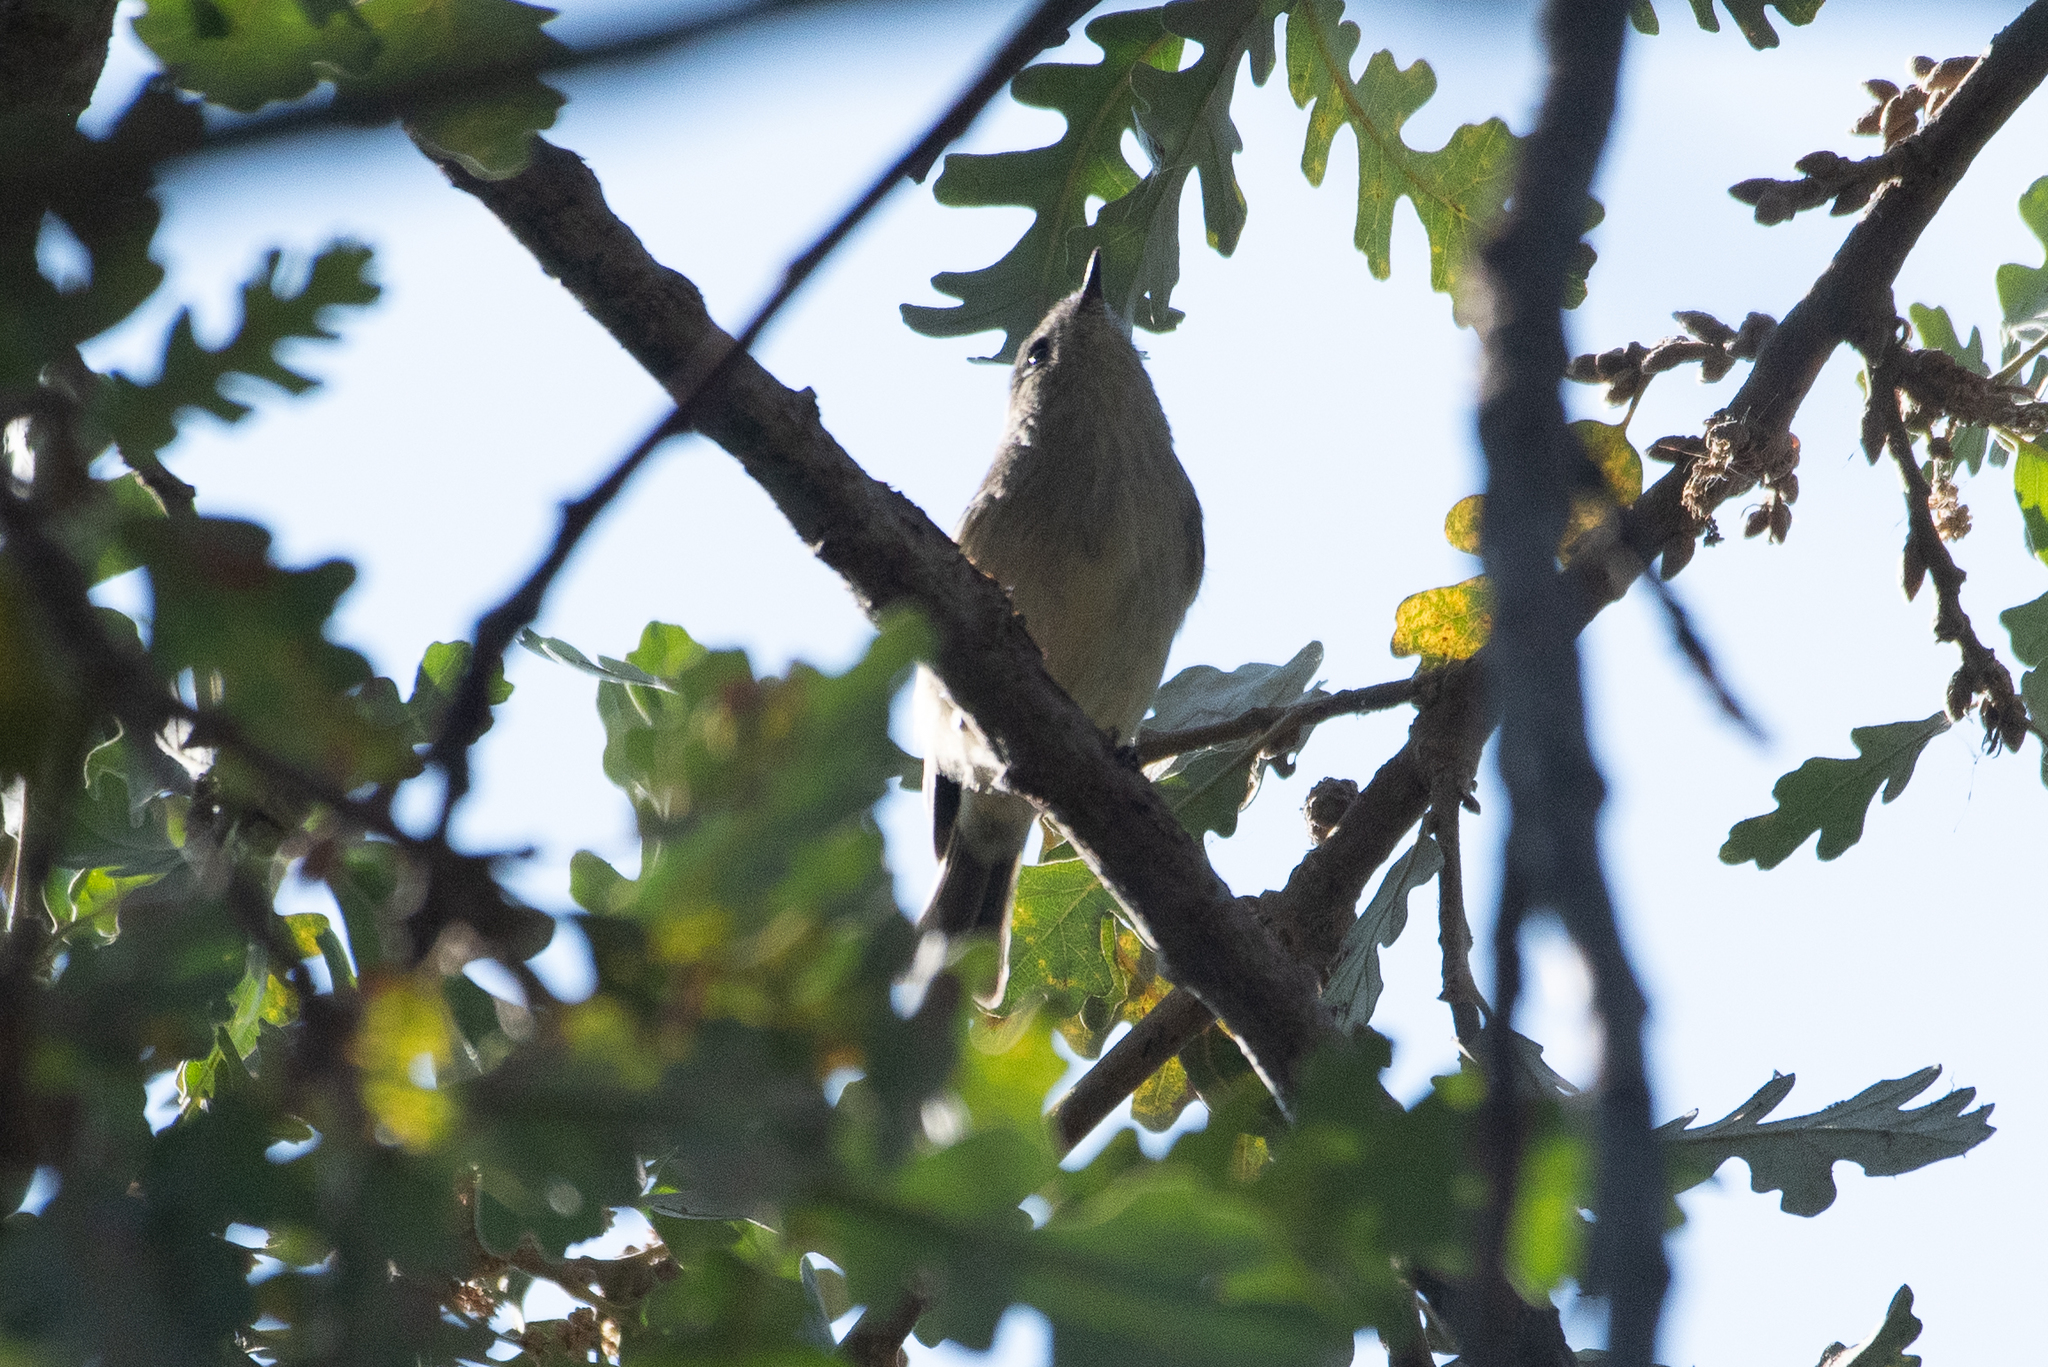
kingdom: Animalia
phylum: Chordata
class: Aves
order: Passeriformes
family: Regulidae
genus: Regulus
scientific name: Regulus calendula
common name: Ruby-crowned kinglet
